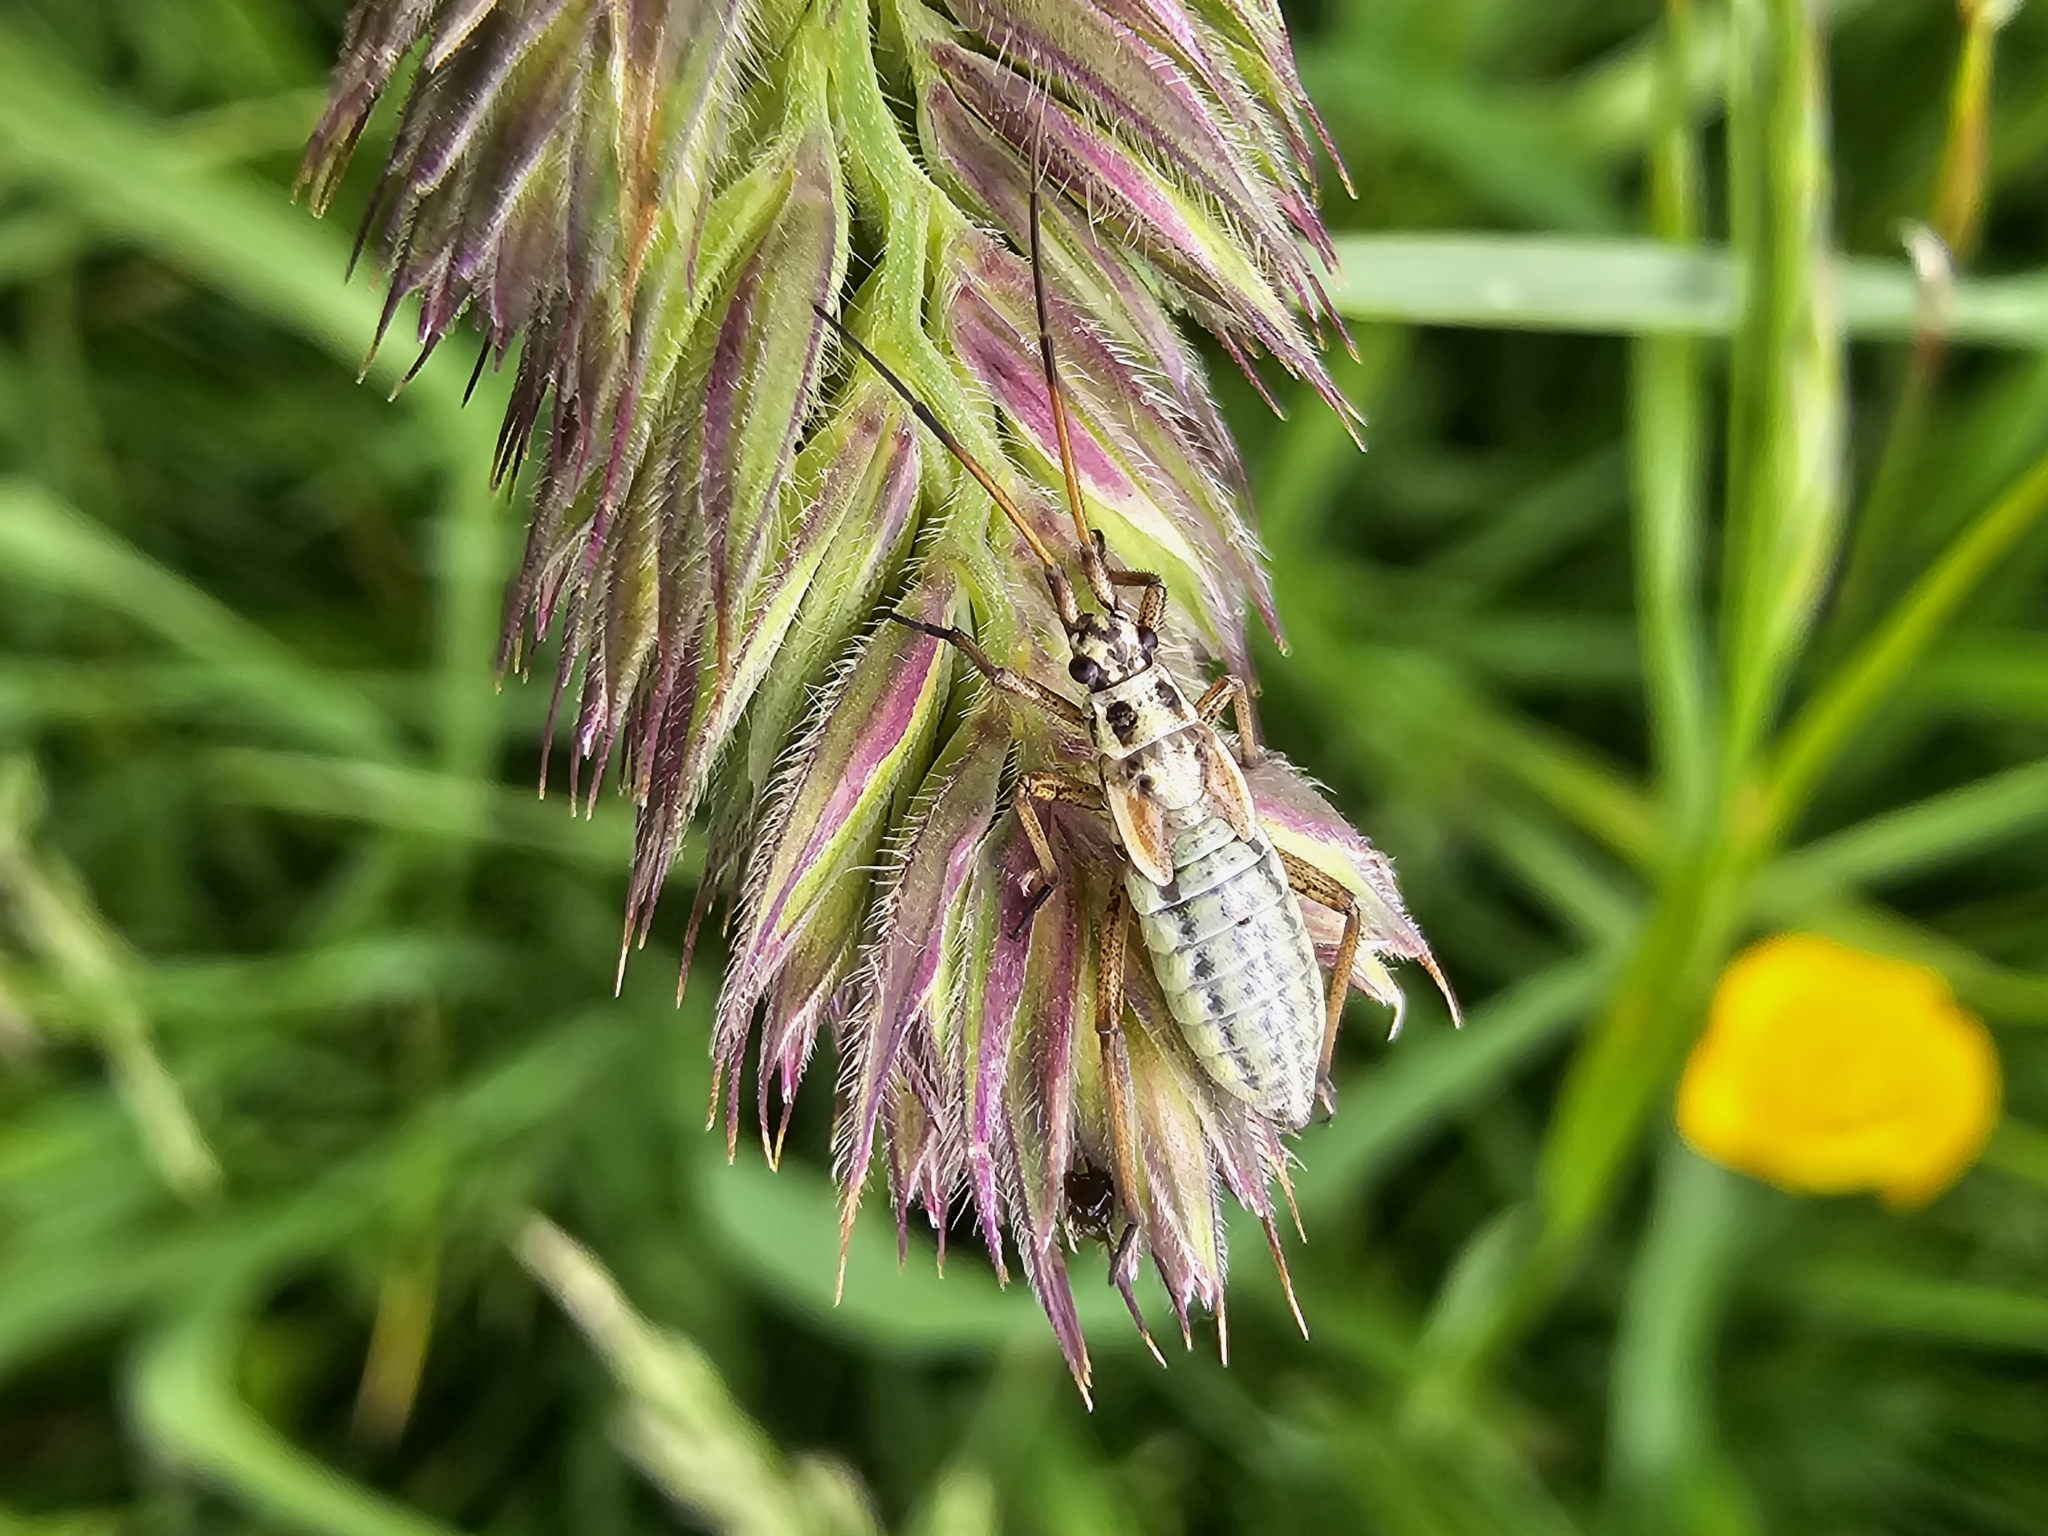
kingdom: Animalia
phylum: Arthropoda
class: Insecta
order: Hemiptera
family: Miridae
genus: Leptopterna
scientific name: Leptopterna dolabrata
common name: Meadow plant bug
